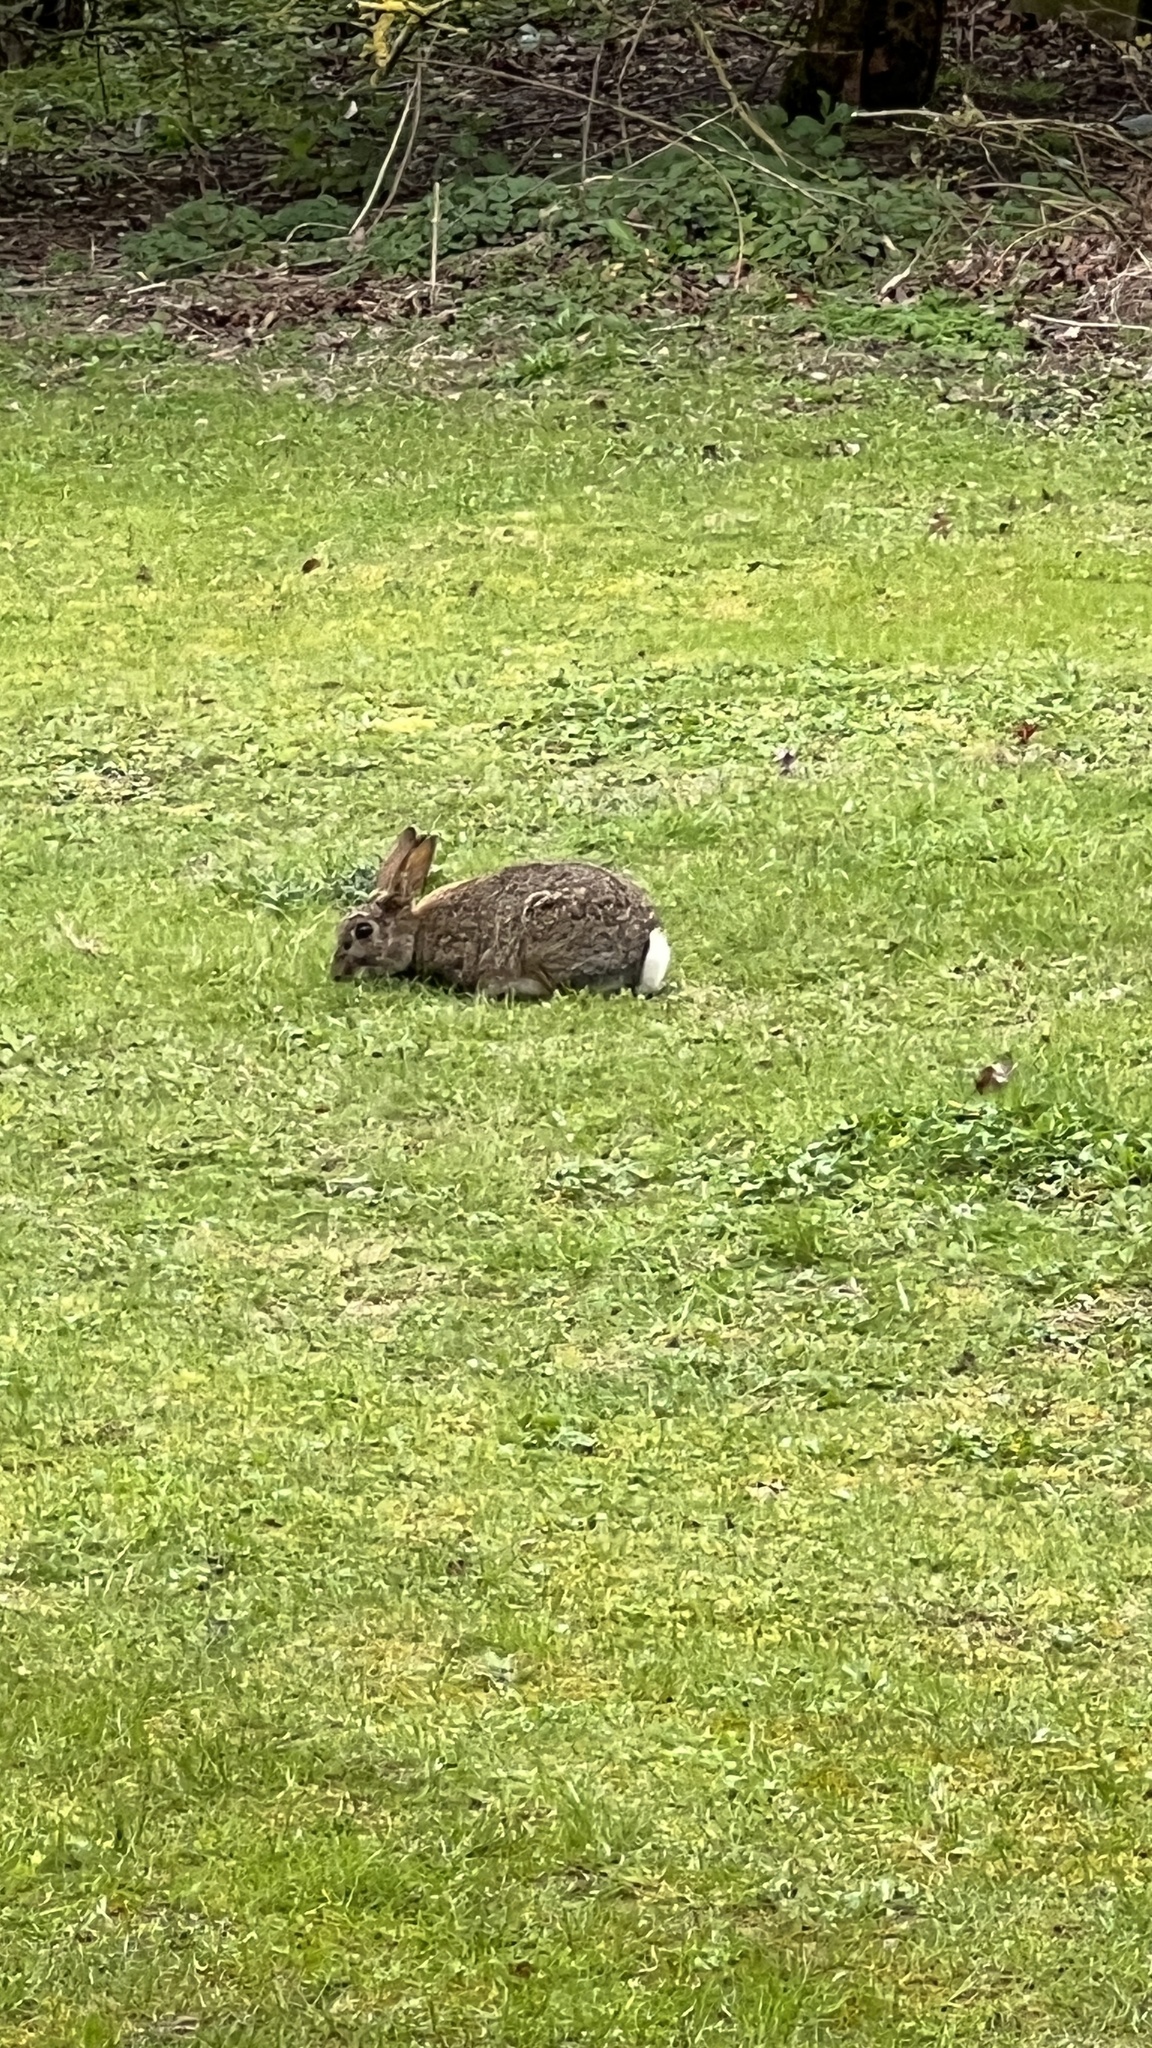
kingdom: Animalia
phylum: Chordata
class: Mammalia
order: Lagomorpha
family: Leporidae
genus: Oryctolagus
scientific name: Oryctolagus cuniculus
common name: European rabbit
